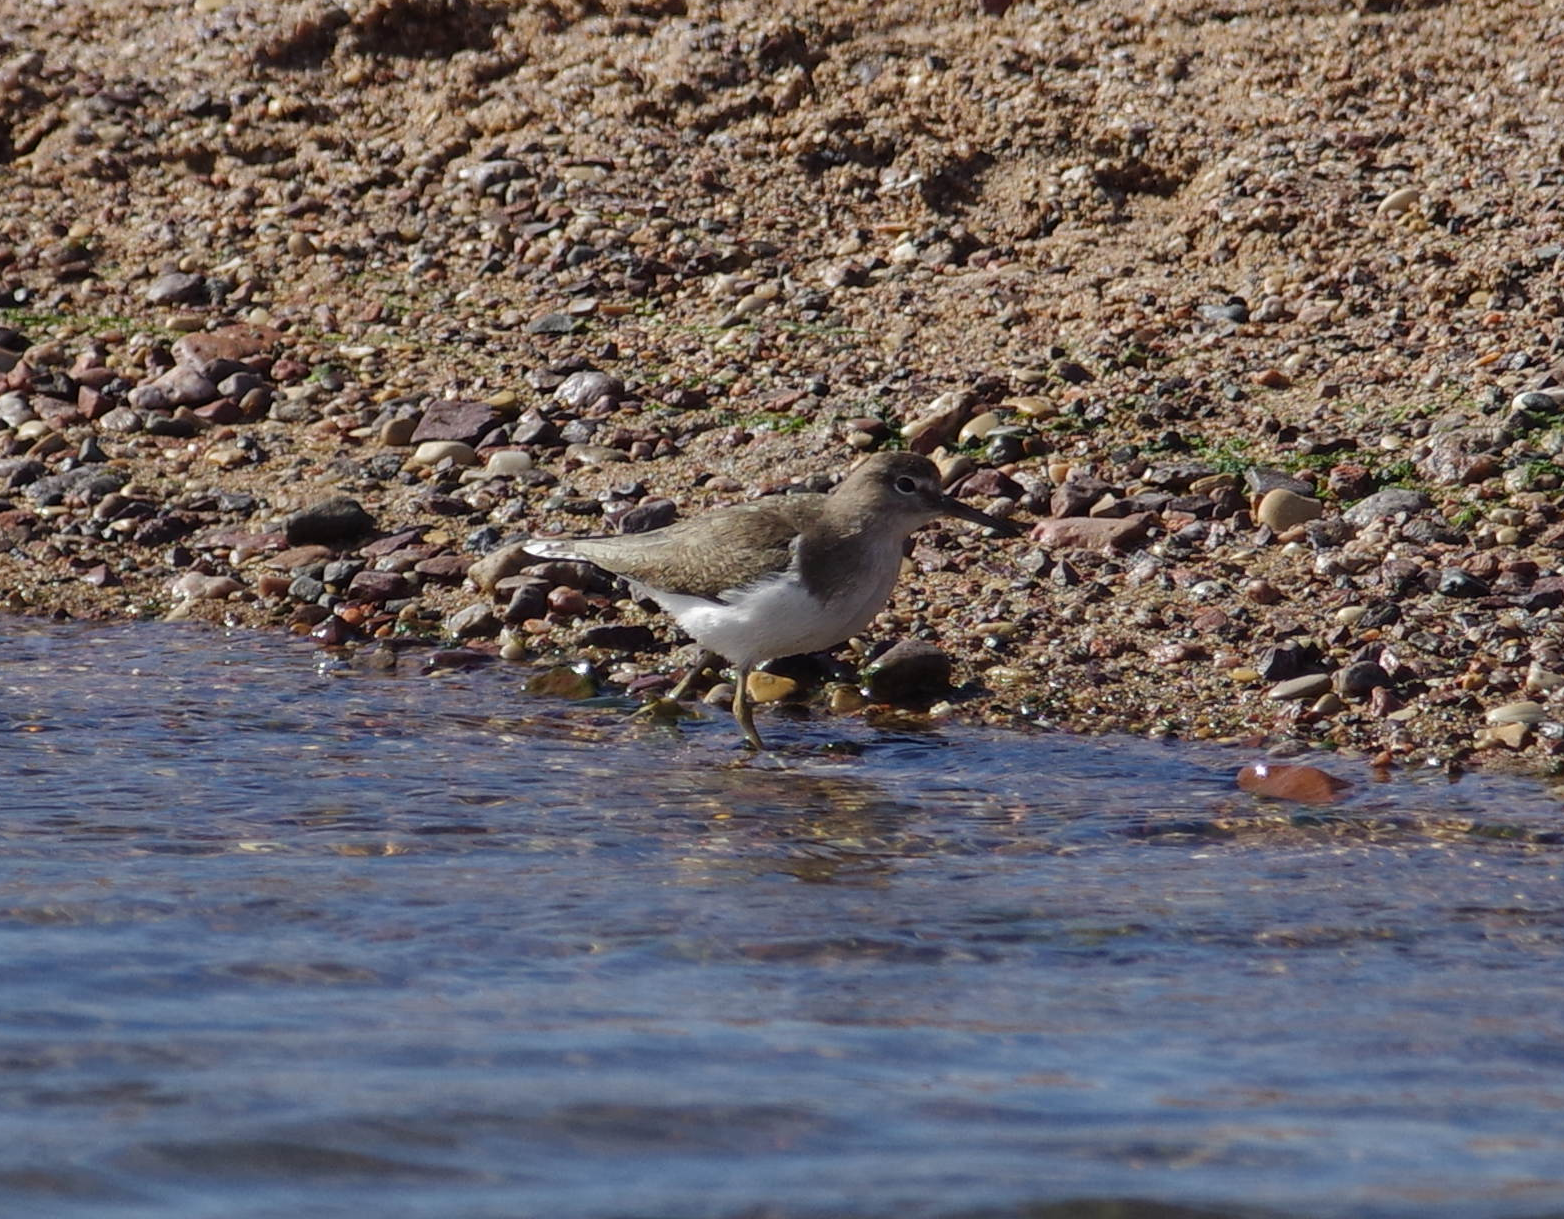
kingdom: Animalia
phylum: Chordata
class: Aves
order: Charadriiformes
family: Scolopacidae
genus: Actitis
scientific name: Actitis hypoleucos
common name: Common sandpiper
